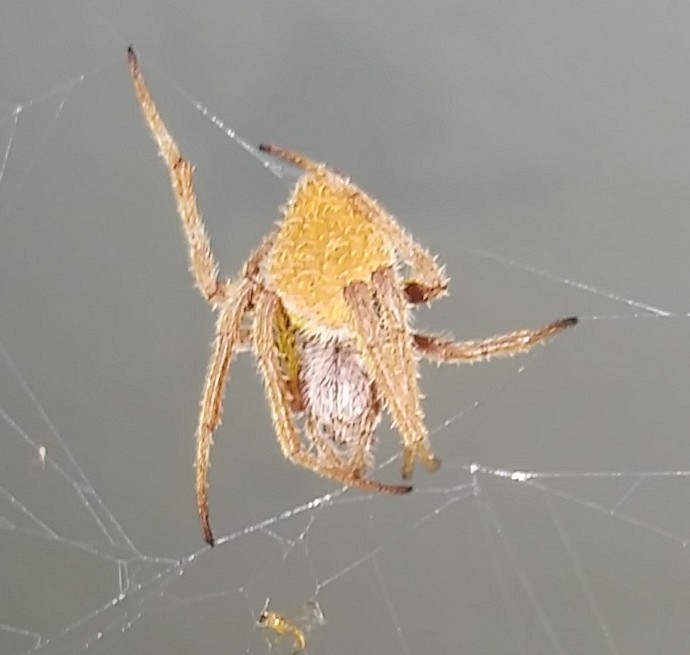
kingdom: Animalia
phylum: Arthropoda
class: Arachnida
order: Araneae
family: Araneidae
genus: Eriophora
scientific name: Eriophora ravilla
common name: Orb weavers
